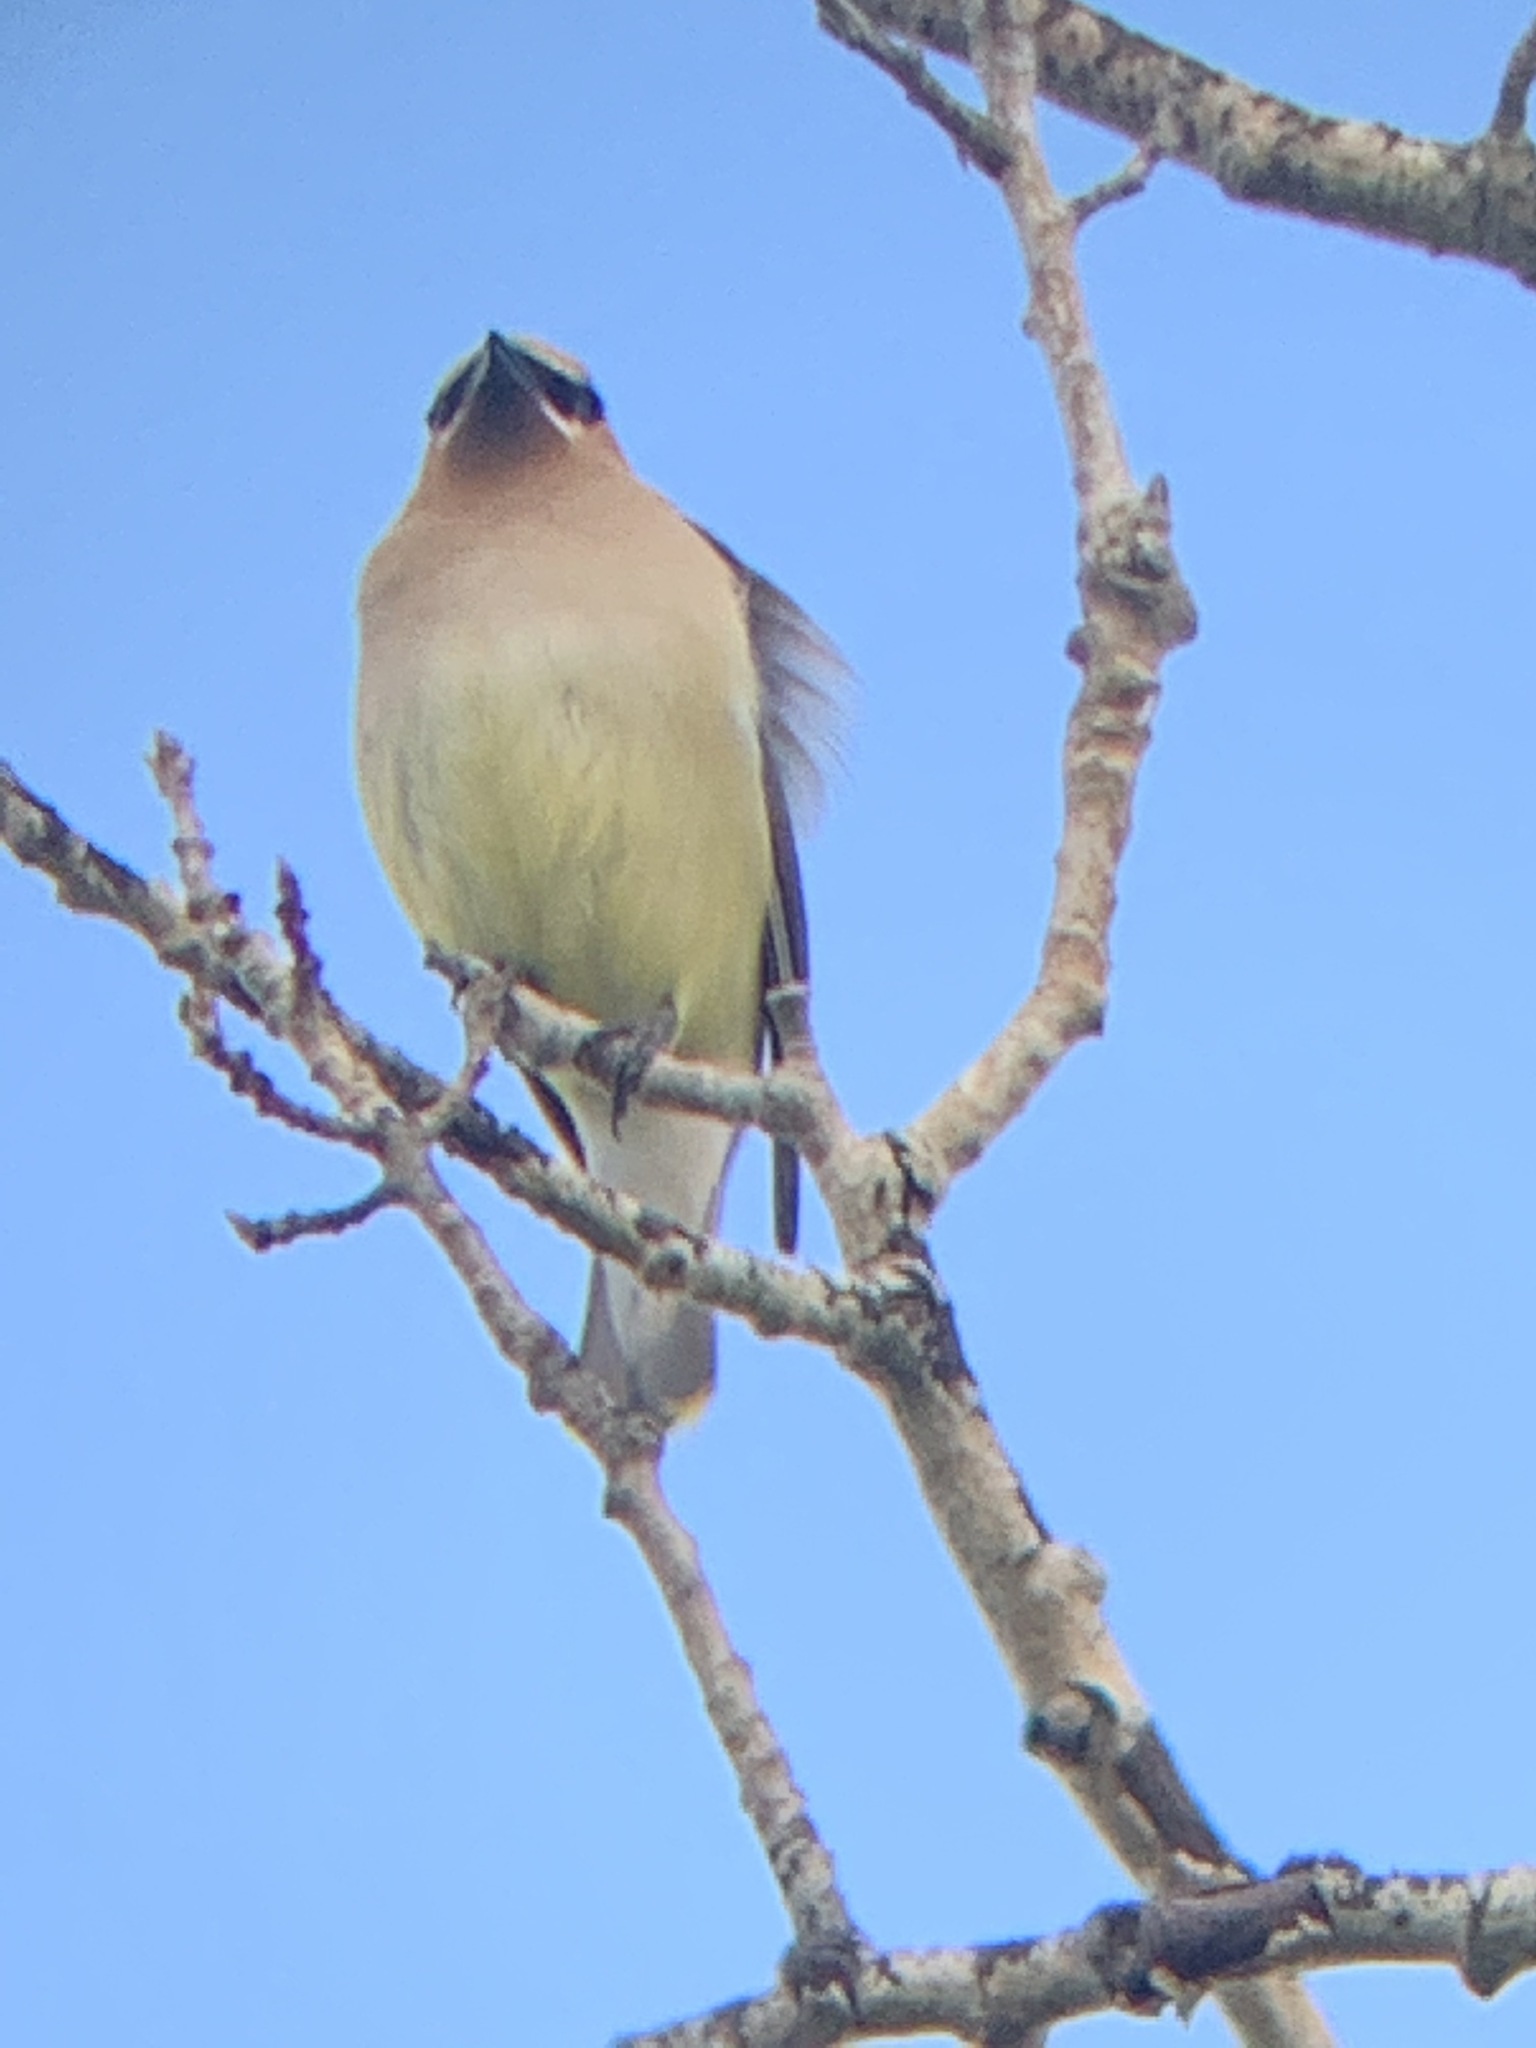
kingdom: Animalia
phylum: Chordata
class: Aves
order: Passeriformes
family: Bombycillidae
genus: Bombycilla
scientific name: Bombycilla cedrorum
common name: Cedar waxwing
